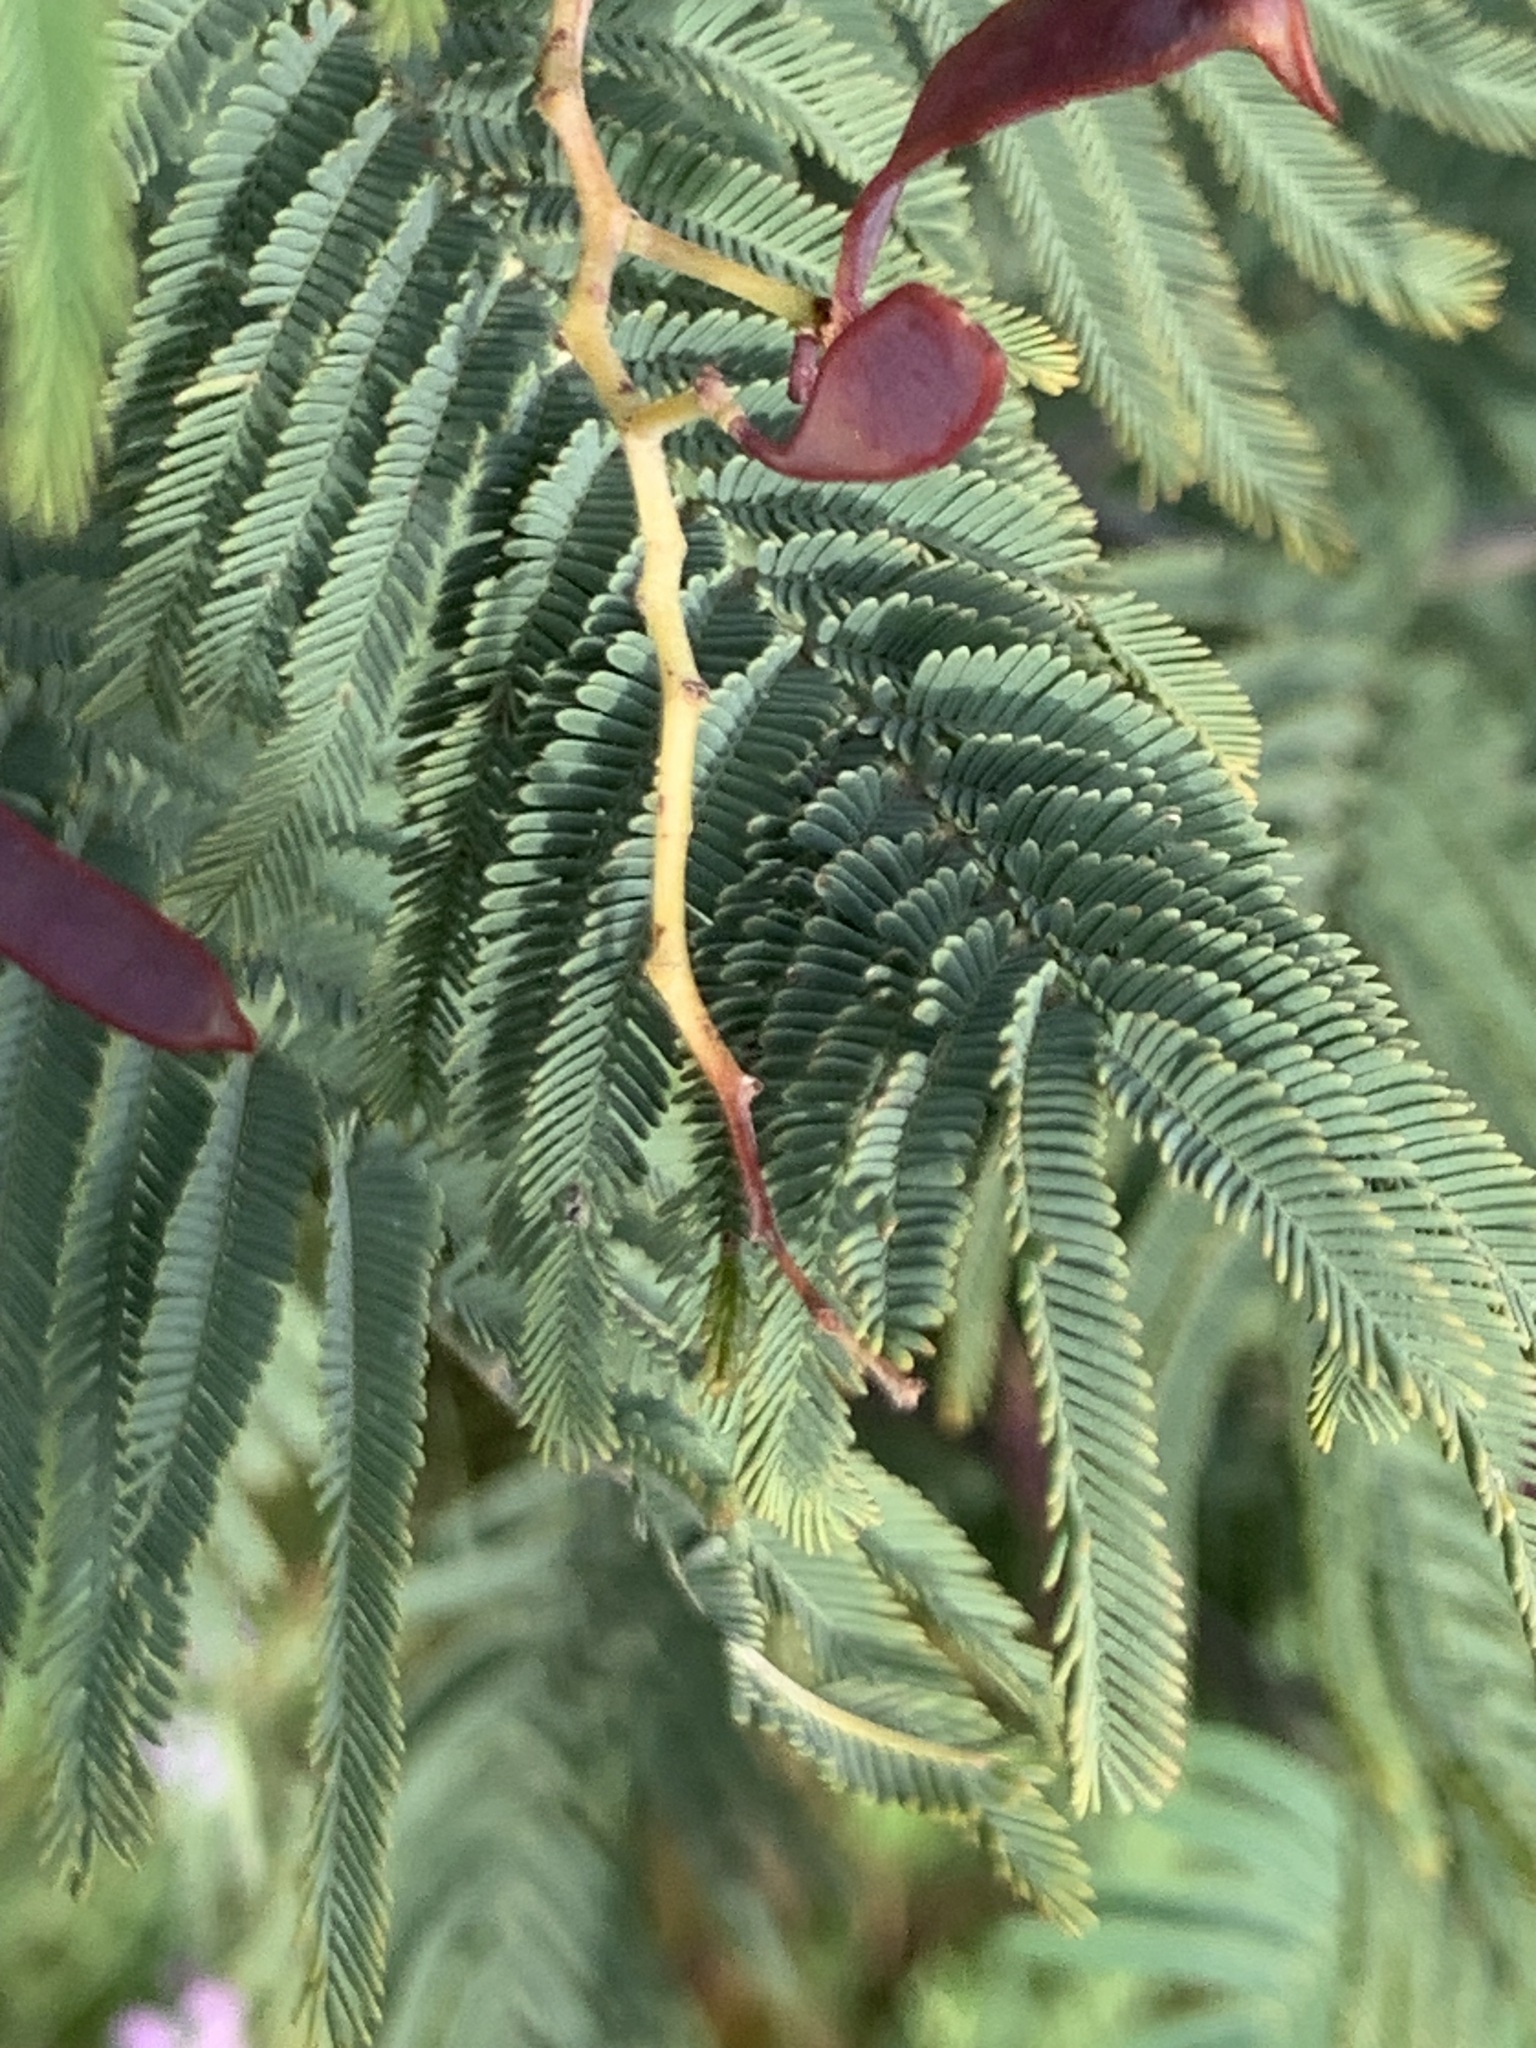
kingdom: Plantae
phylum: Tracheophyta
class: Magnoliopsida
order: Fabales
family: Fabaceae
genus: Acacia
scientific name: Acacia dealbata
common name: Silver wattle
